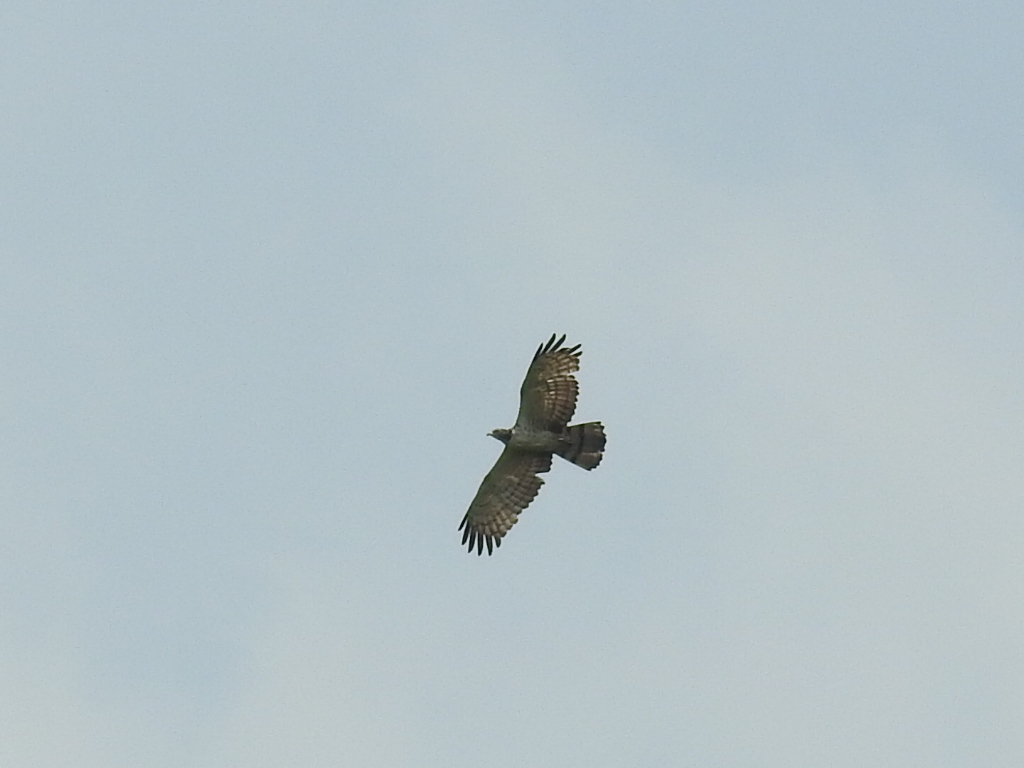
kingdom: Animalia
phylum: Chordata
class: Aves
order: Accipitriformes
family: Accipitridae
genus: Pernis
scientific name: Pernis ptilorhynchus
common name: Crested honey buzzard
